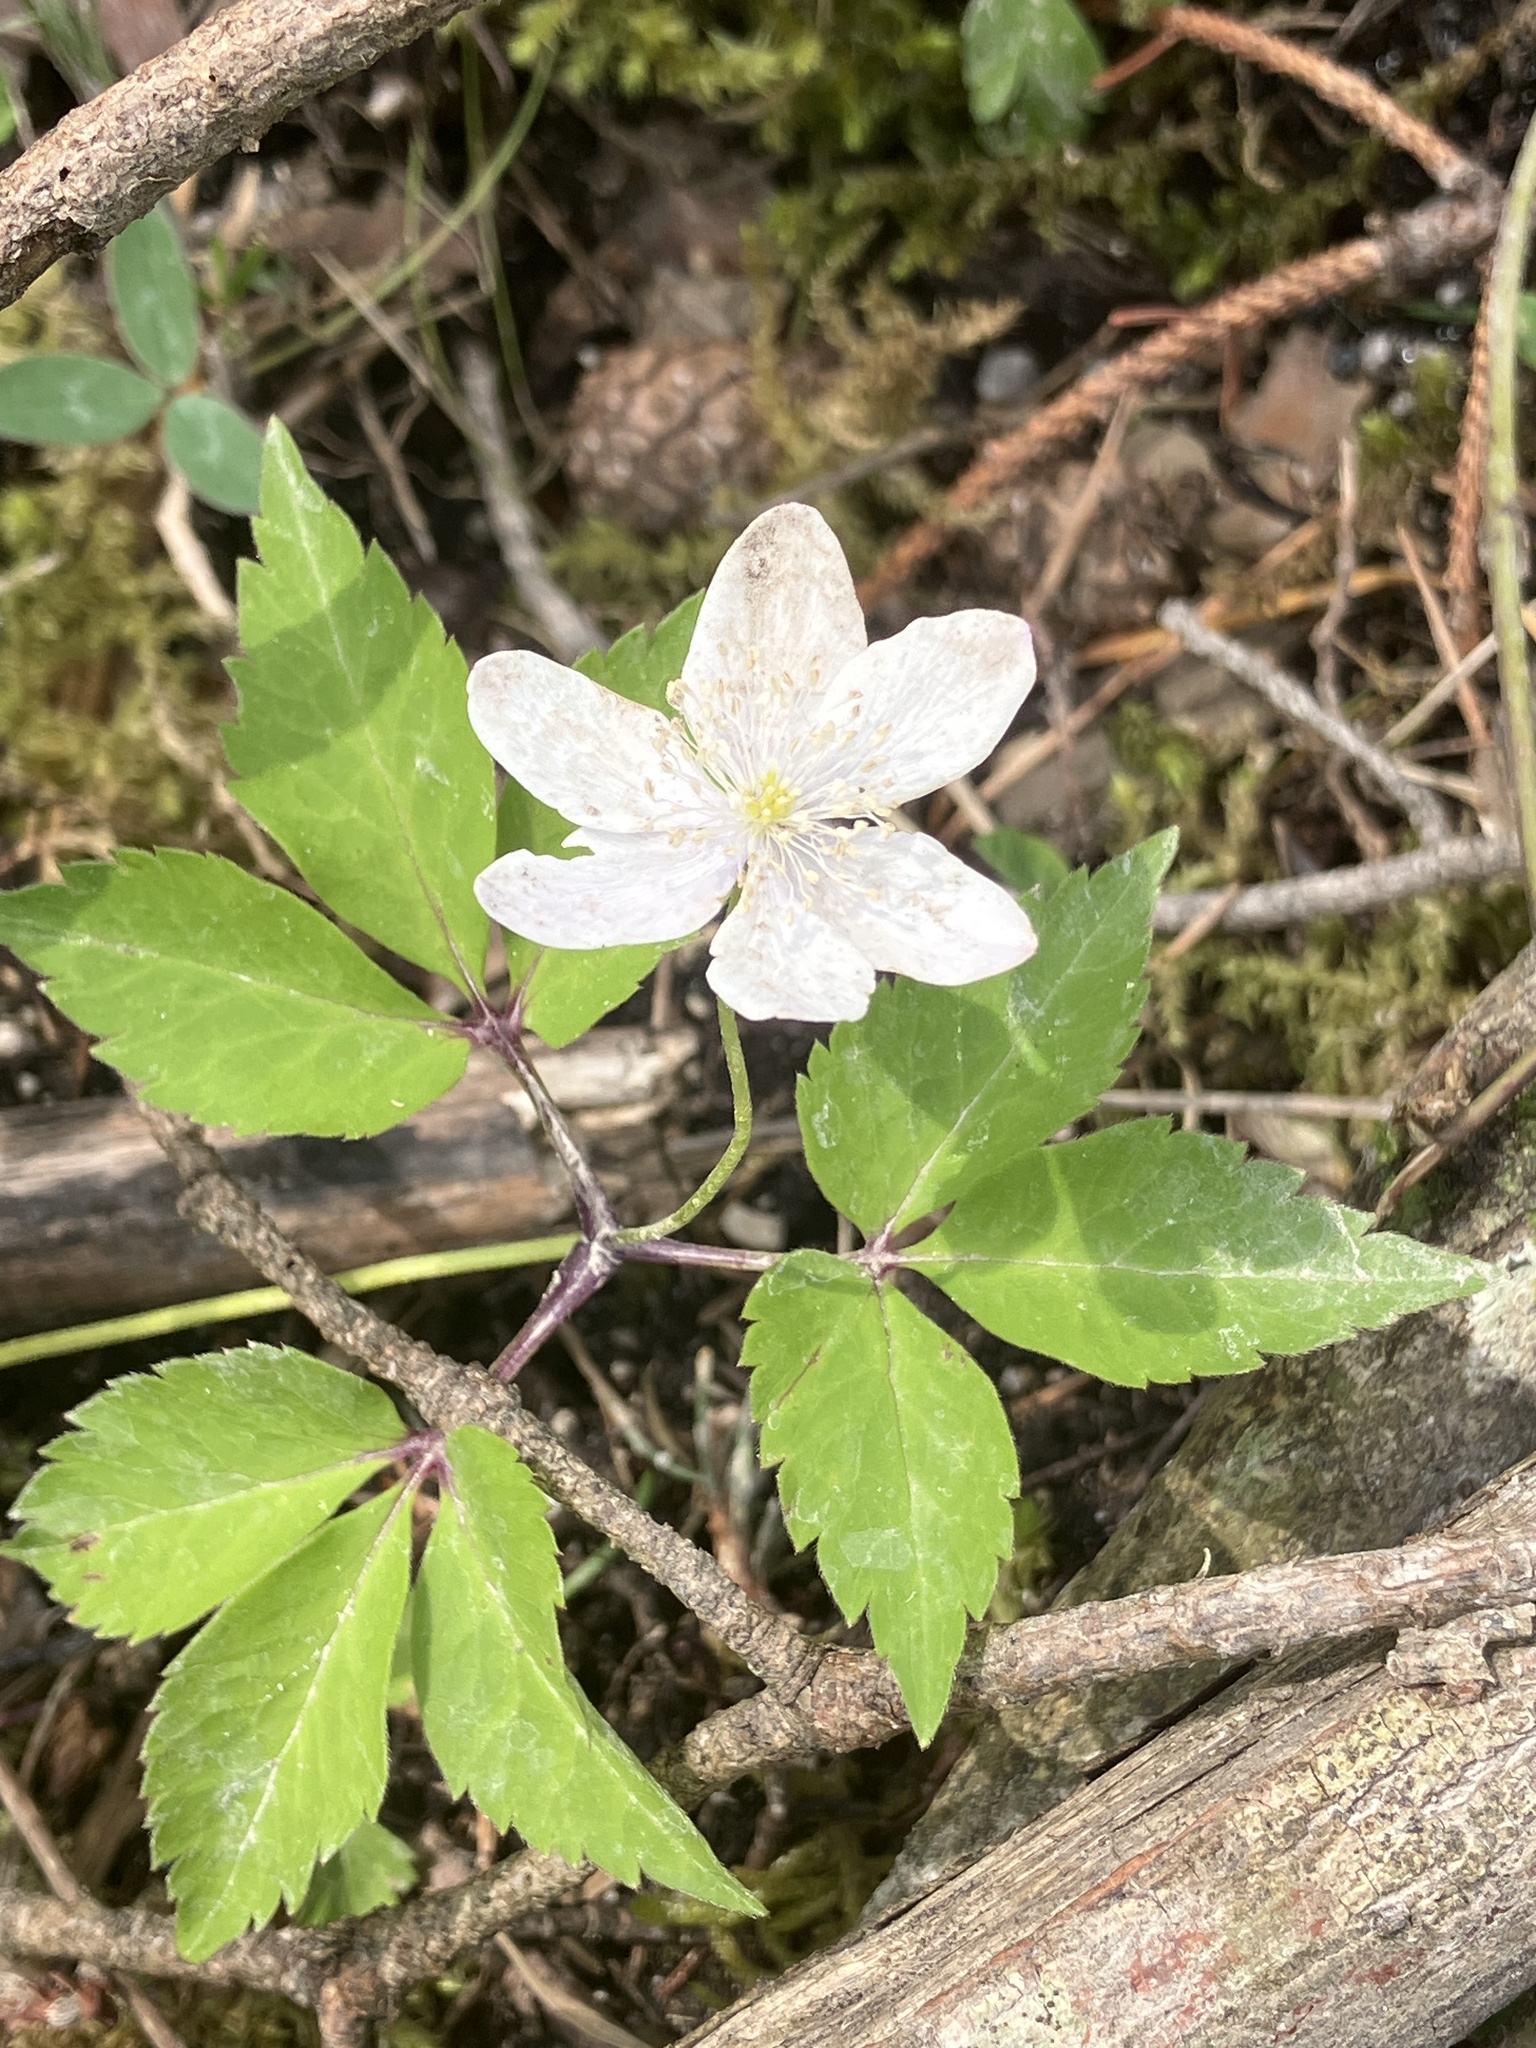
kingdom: Plantae
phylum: Tracheophyta
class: Magnoliopsida
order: Ranunculales
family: Ranunculaceae
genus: Anemone
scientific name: Anemone trifolia
